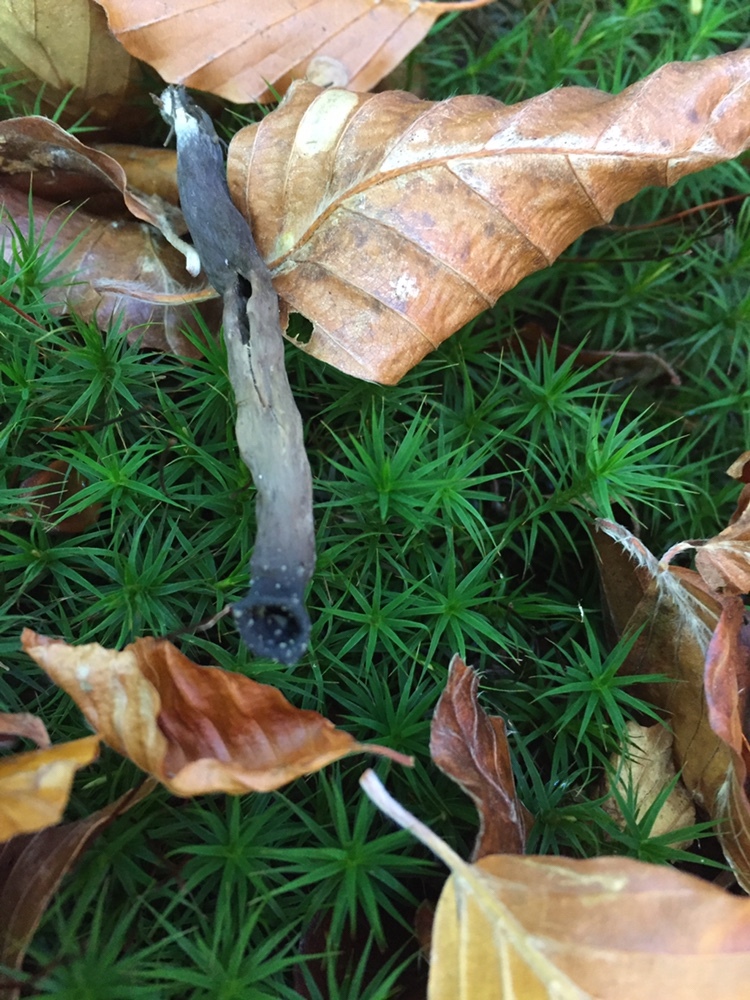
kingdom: Fungi
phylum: Basidiomycota
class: Agaricomycetes
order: Cantharellales
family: Hydnaceae
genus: Craterellus
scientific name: Craterellus cornucopioides
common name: Horn of plenty
